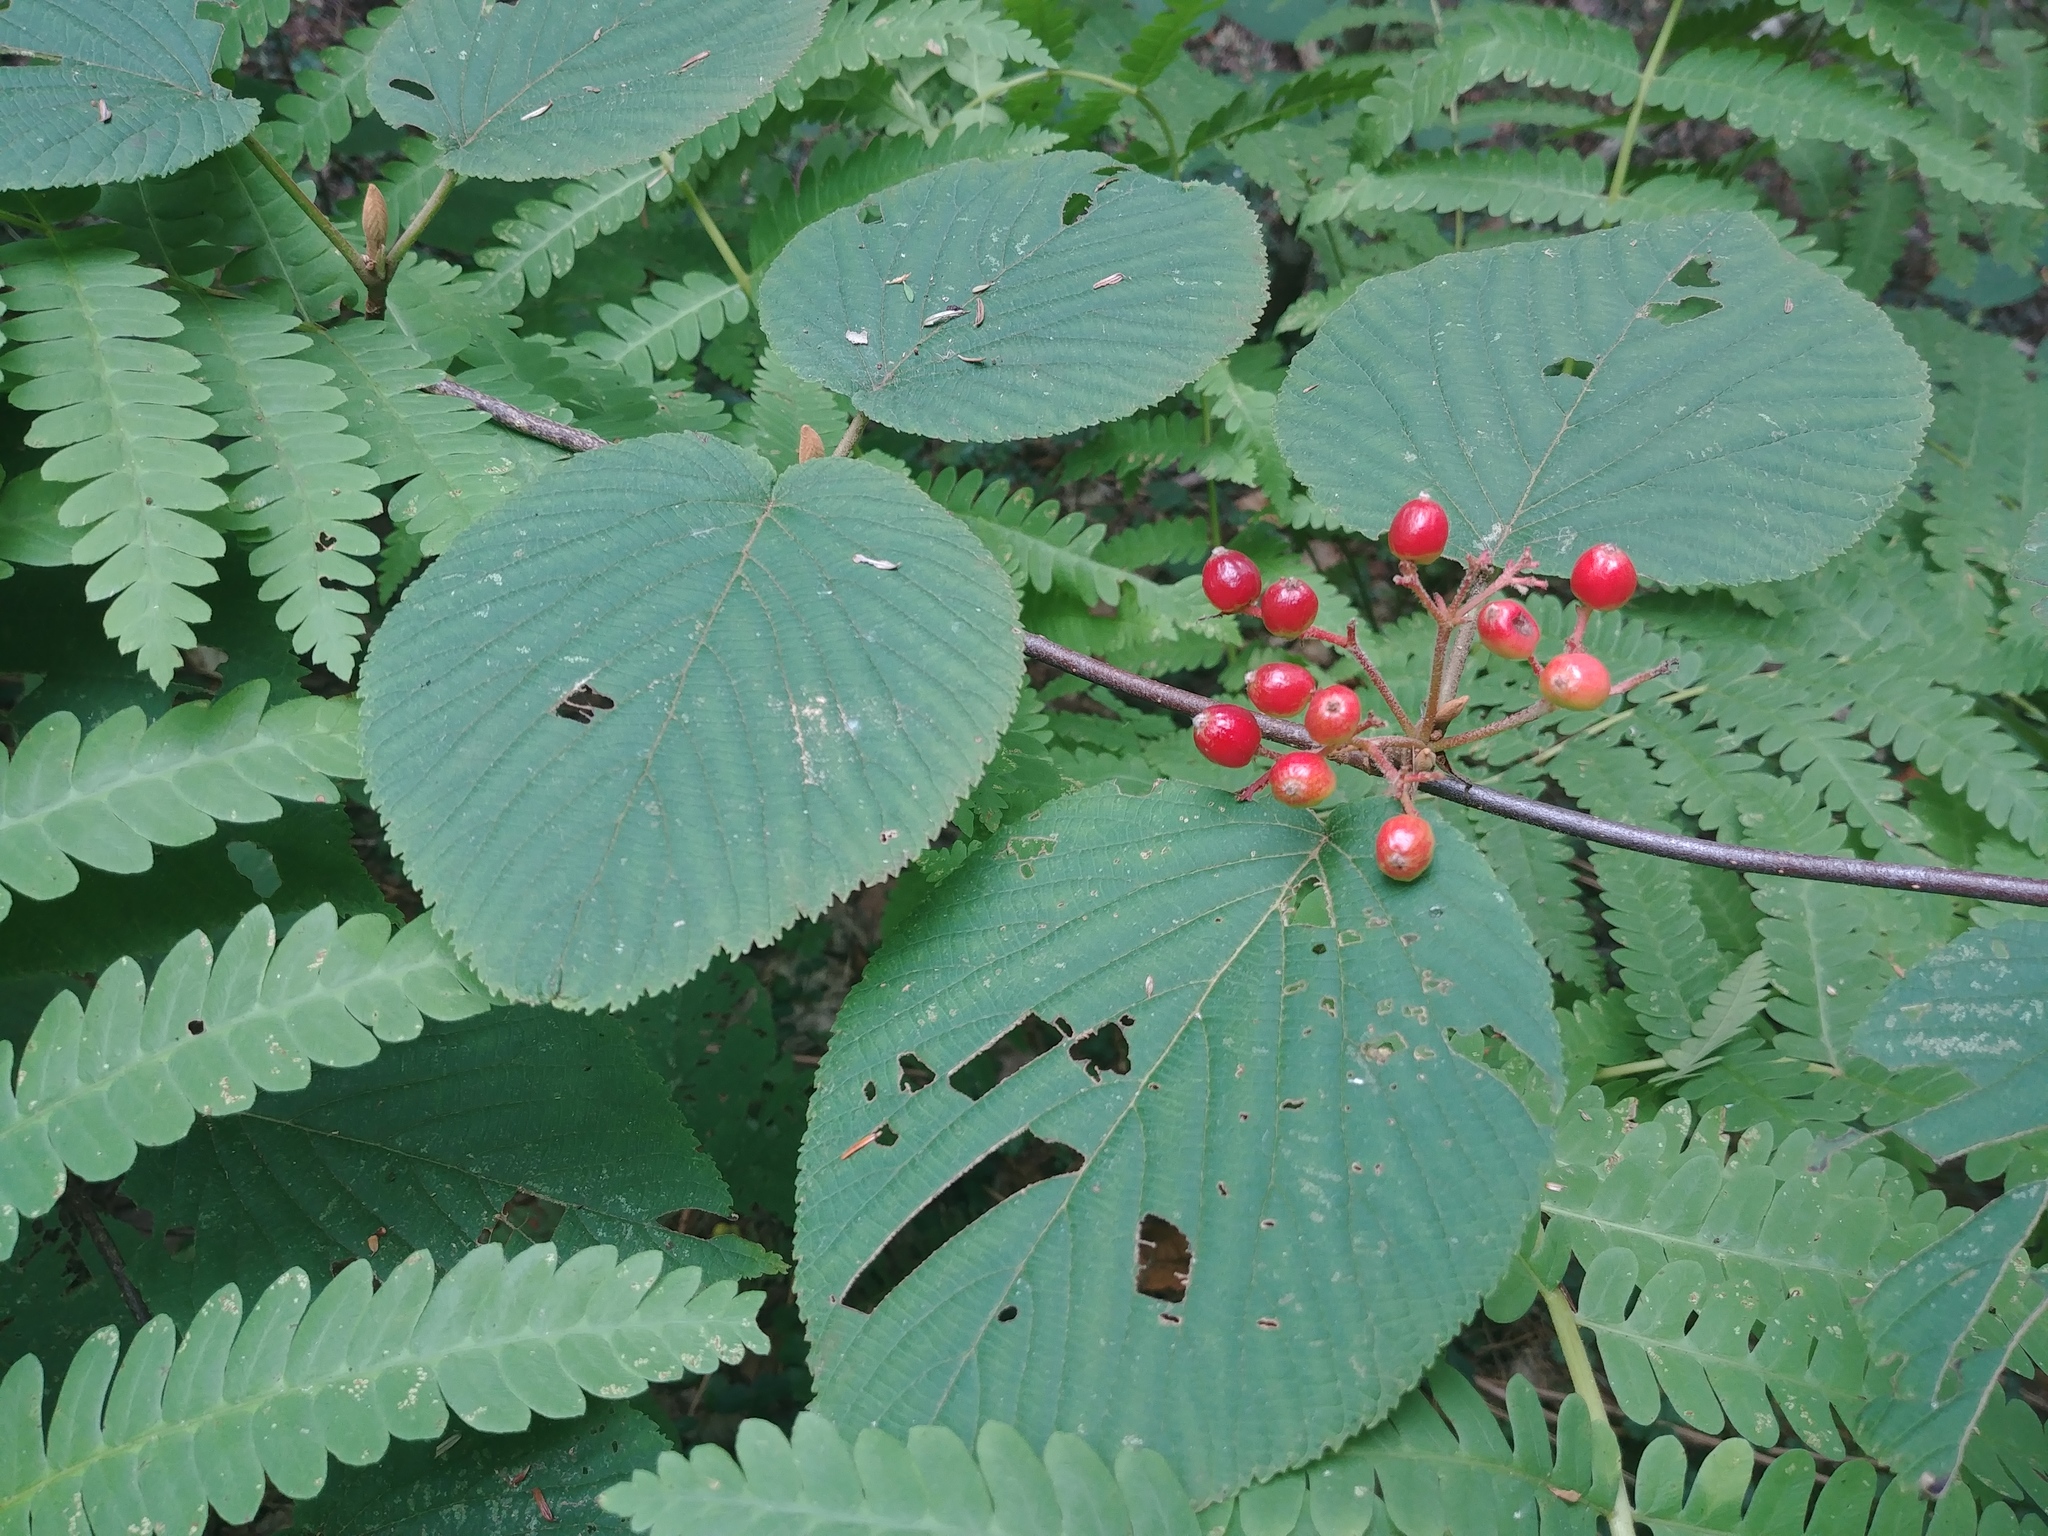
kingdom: Plantae
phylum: Tracheophyta
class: Magnoliopsida
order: Dipsacales
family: Viburnaceae
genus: Viburnum
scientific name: Viburnum lantanoides
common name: Hobblebush
